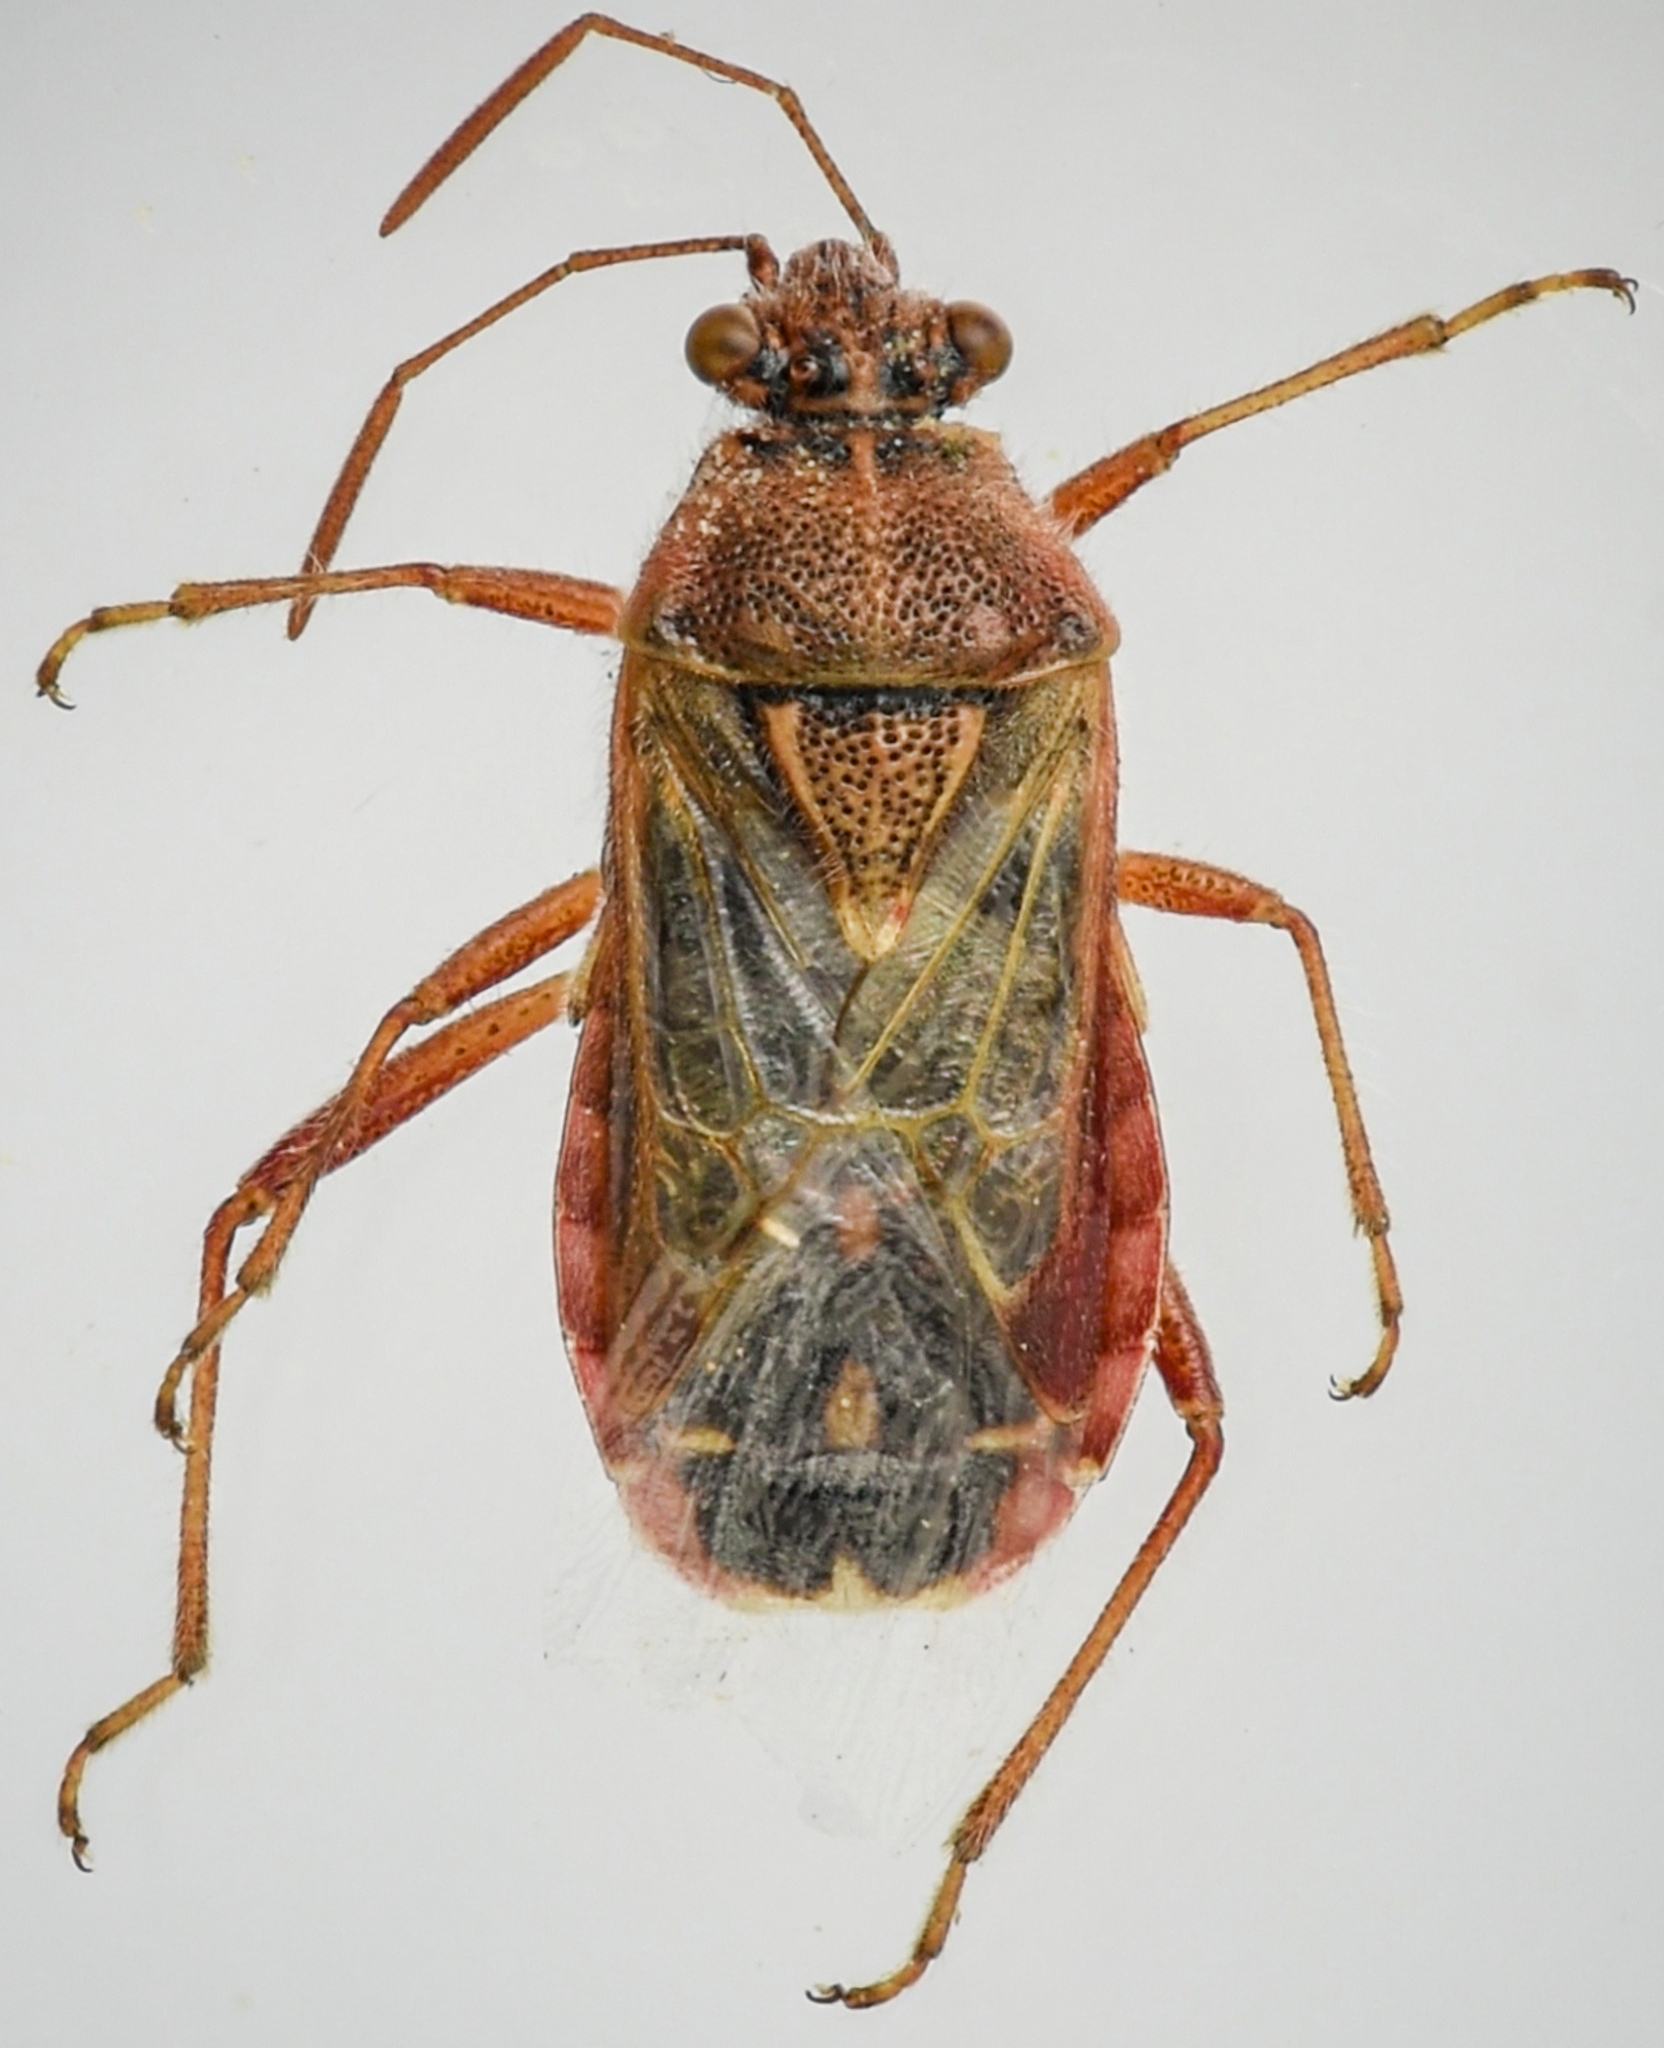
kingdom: Animalia
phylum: Arthropoda
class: Insecta
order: Hemiptera
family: Rhopalidae
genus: Liorhyssus
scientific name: Liorhyssus hyalinus
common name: Scentless plant bug
